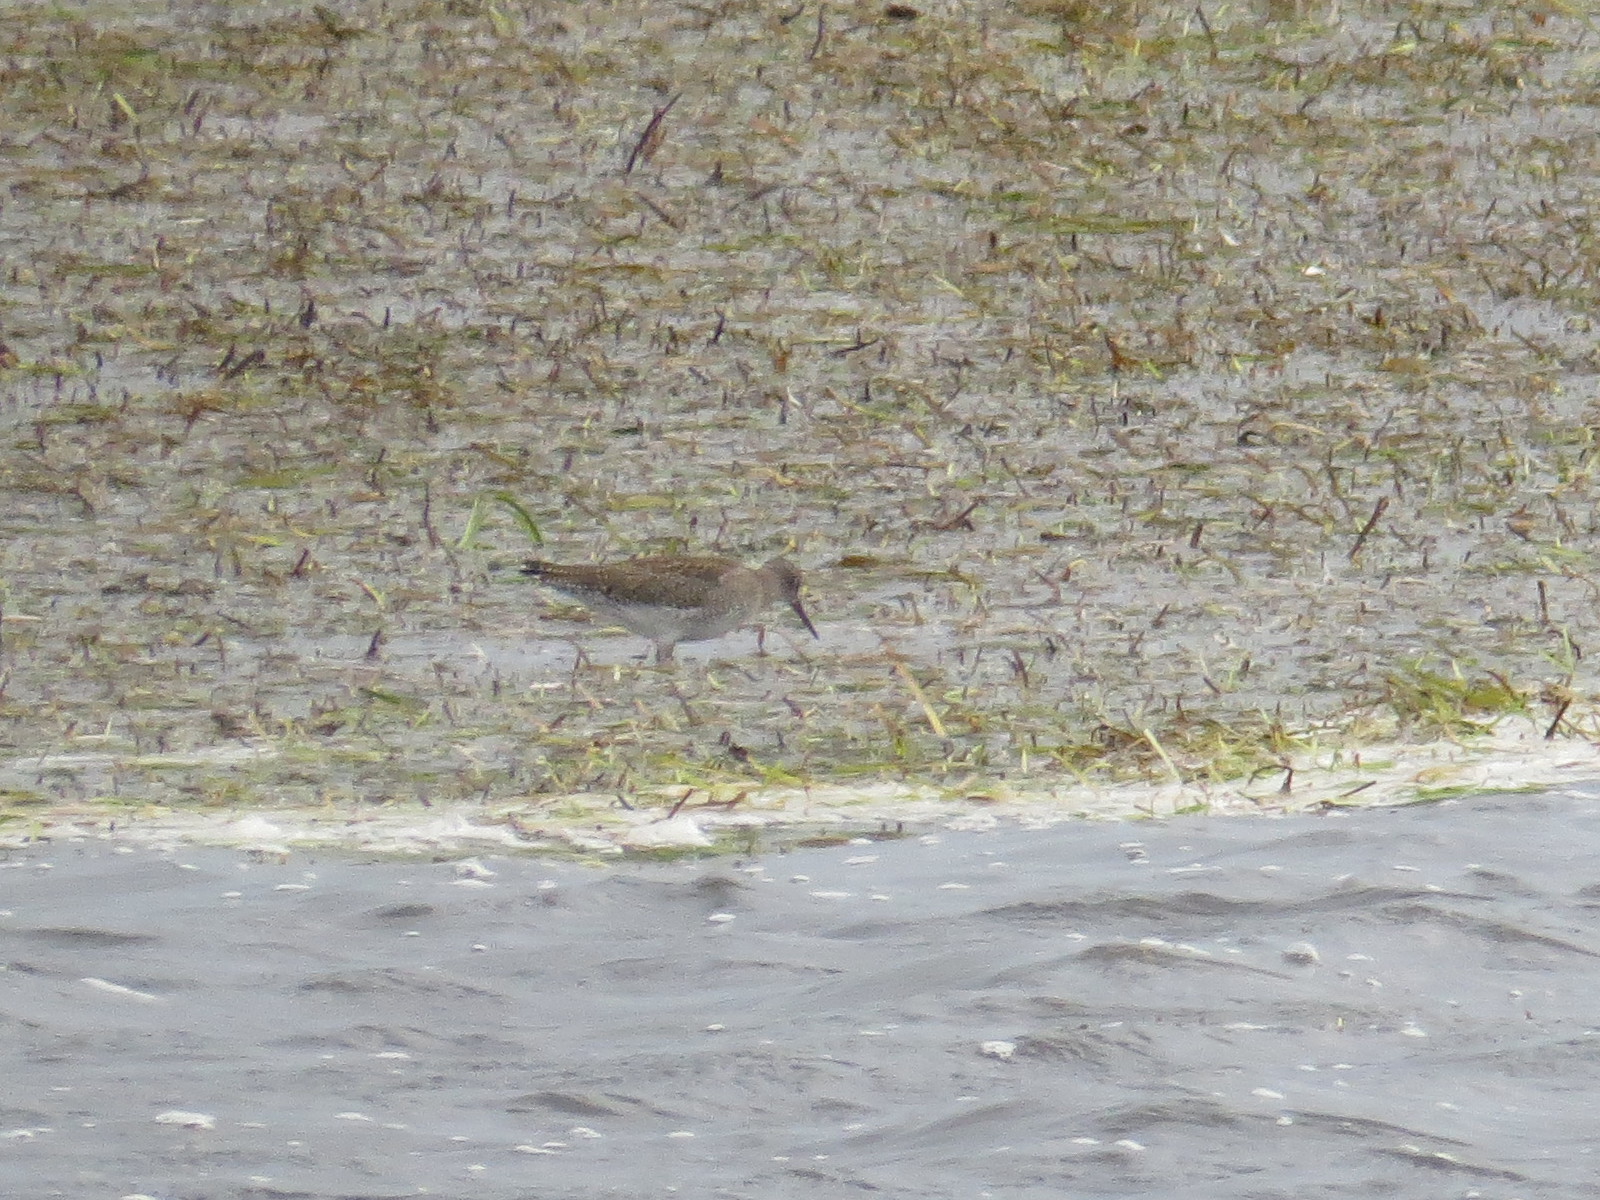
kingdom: Animalia
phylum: Chordata
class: Aves
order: Charadriiformes
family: Scolopacidae
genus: Tringa
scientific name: Tringa glareola
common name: Wood sandpiper
